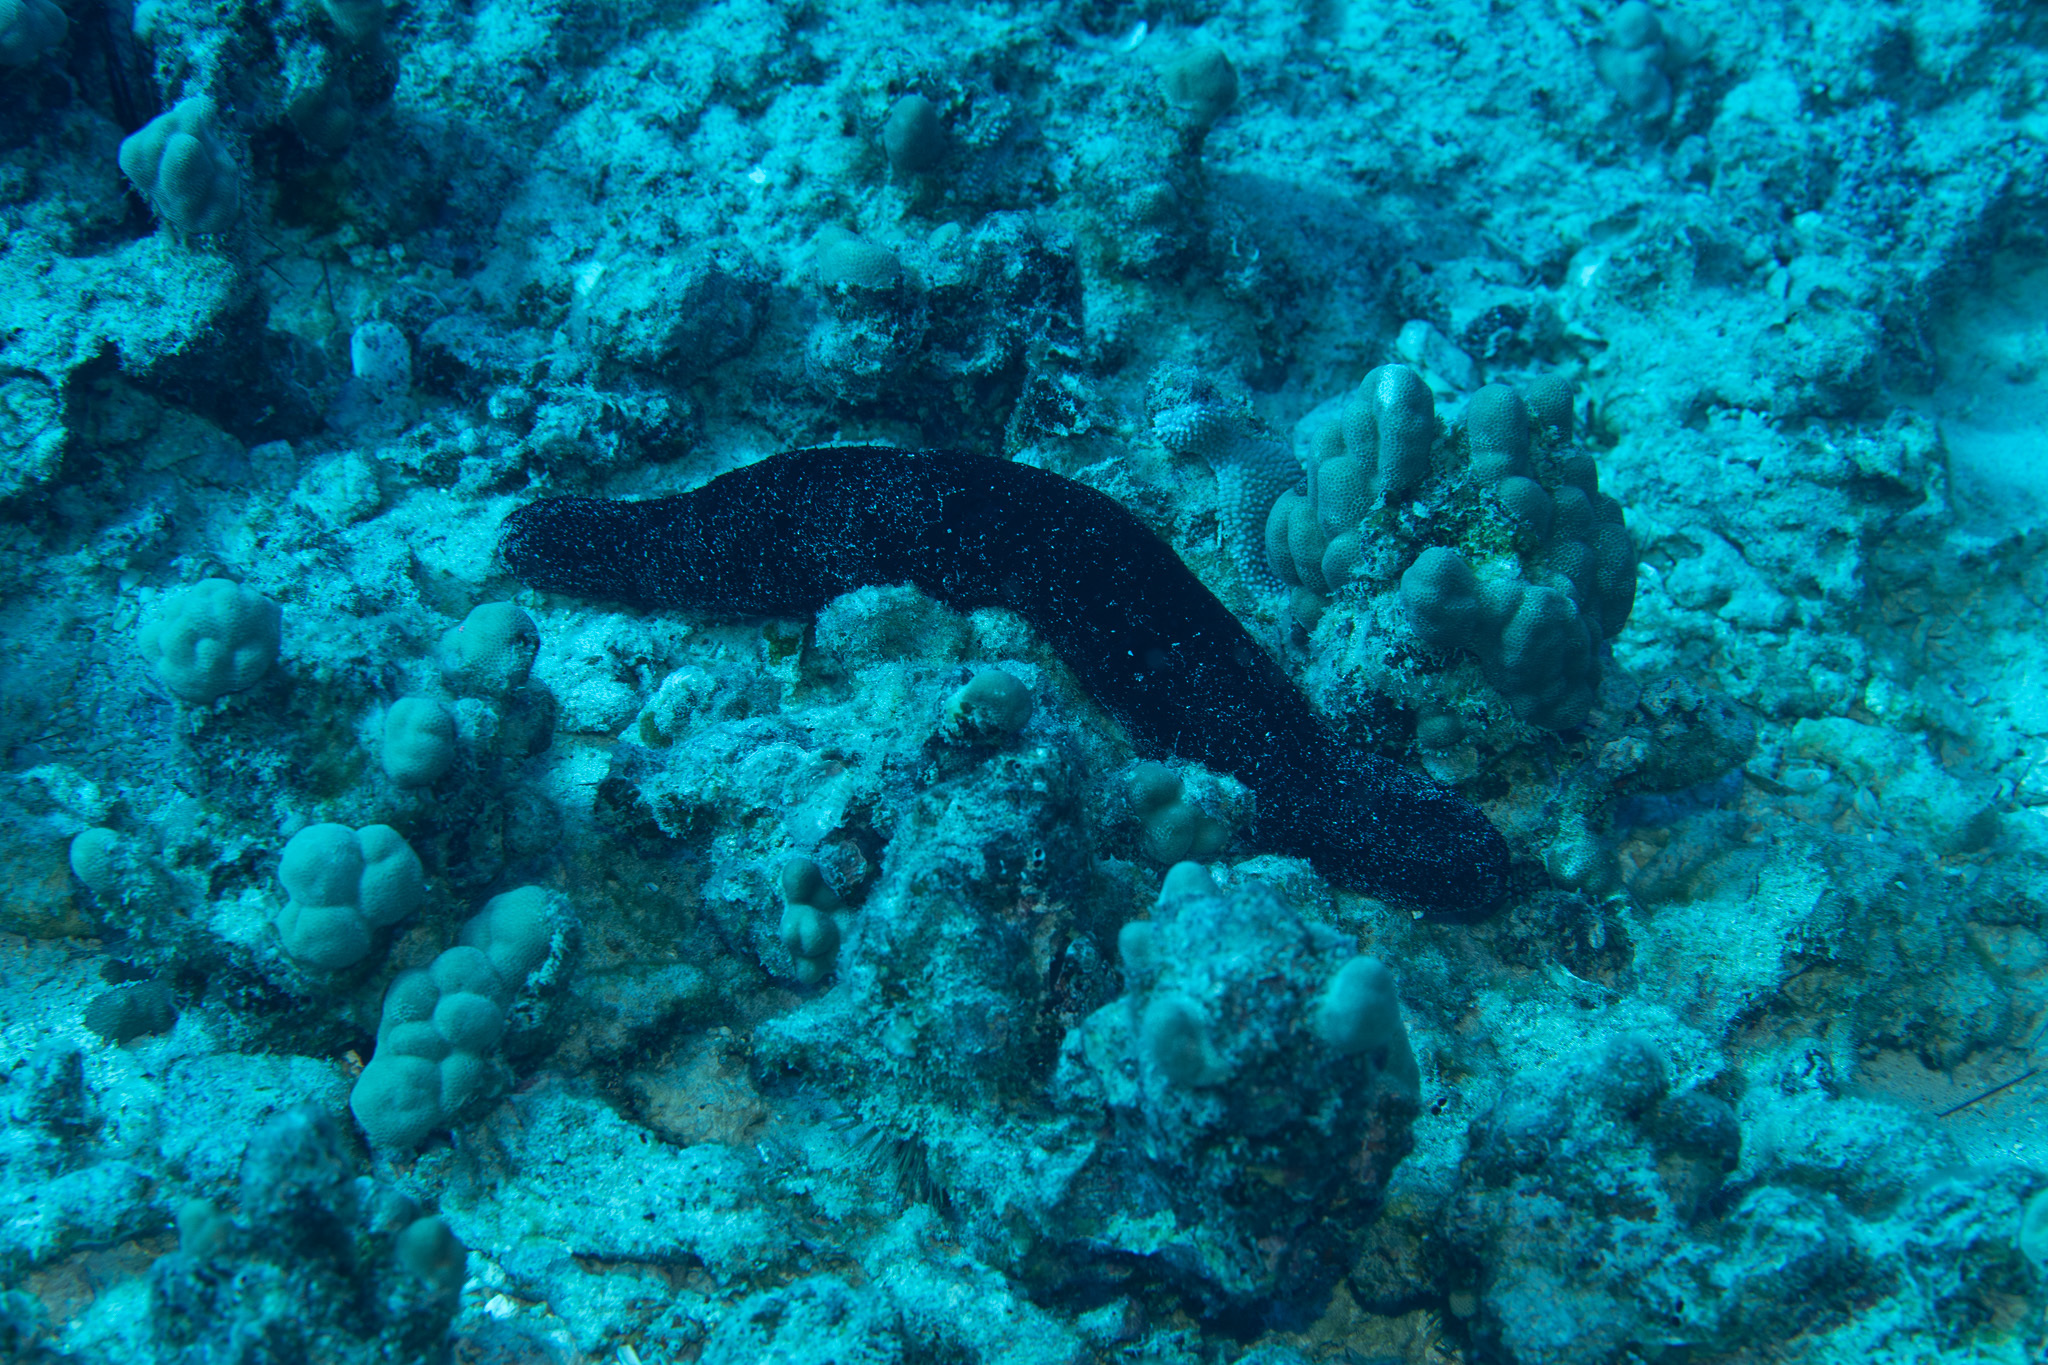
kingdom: Animalia
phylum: Echinodermata
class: Holothuroidea
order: Holothuriida
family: Holothuriidae
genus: Holothuria
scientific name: Holothuria atra
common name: Lollyfish
